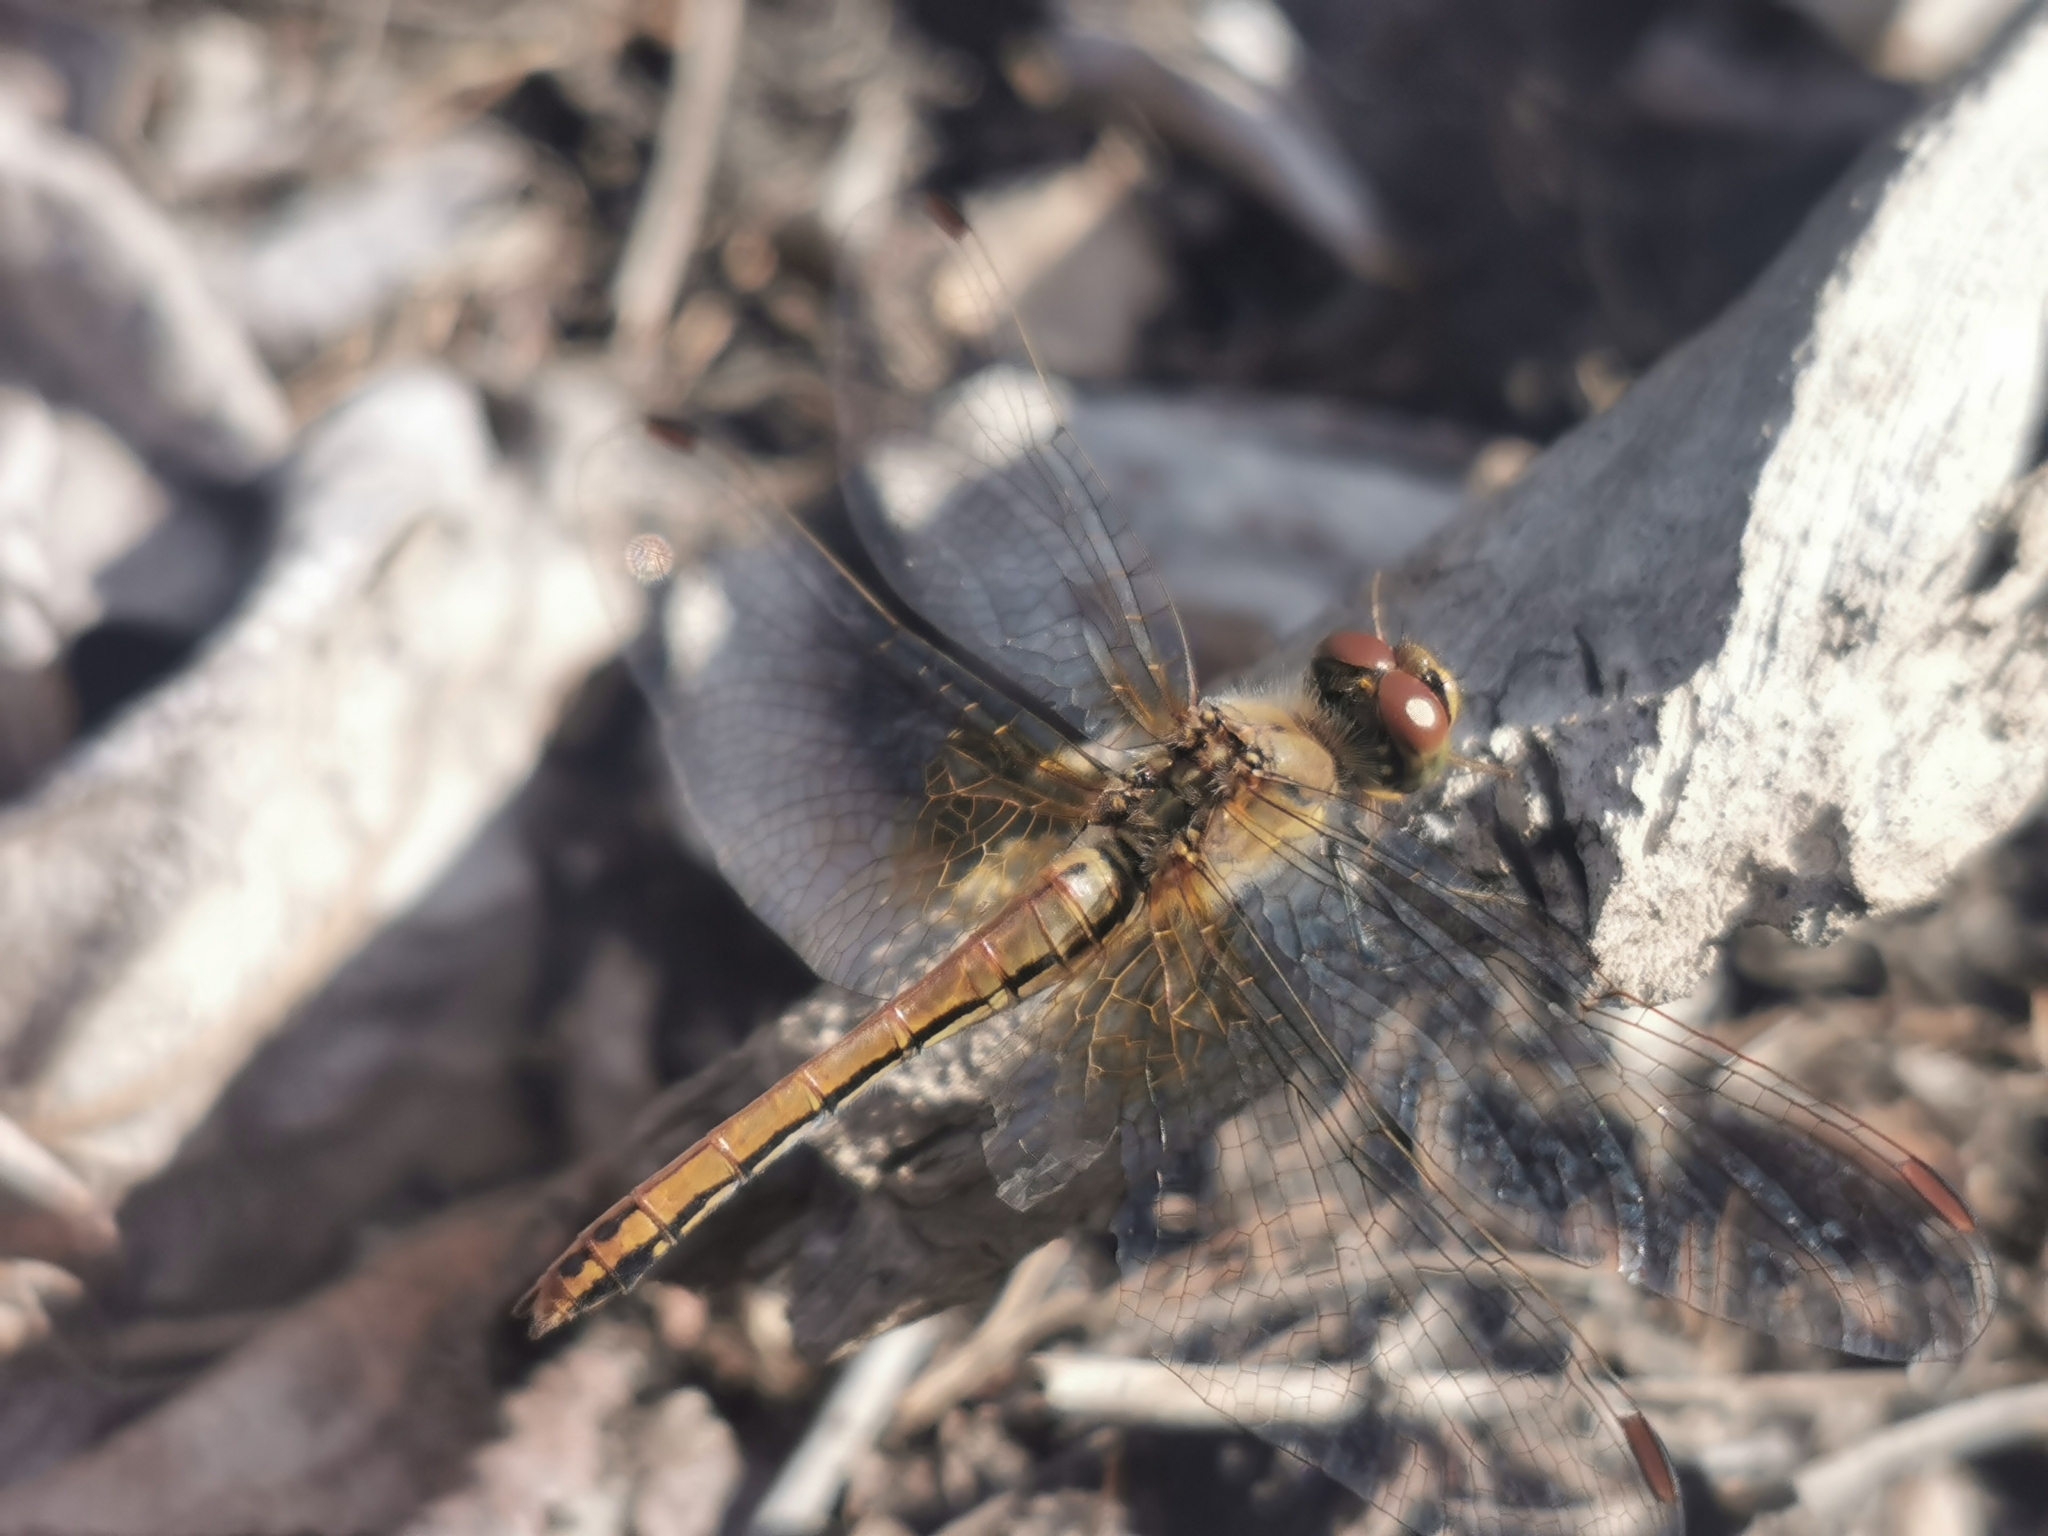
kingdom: Animalia
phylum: Arthropoda
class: Insecta
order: Odonata
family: Libellulidae
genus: Sympetrum
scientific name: Sympetrum flaveolum
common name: Yellow-winged darter
